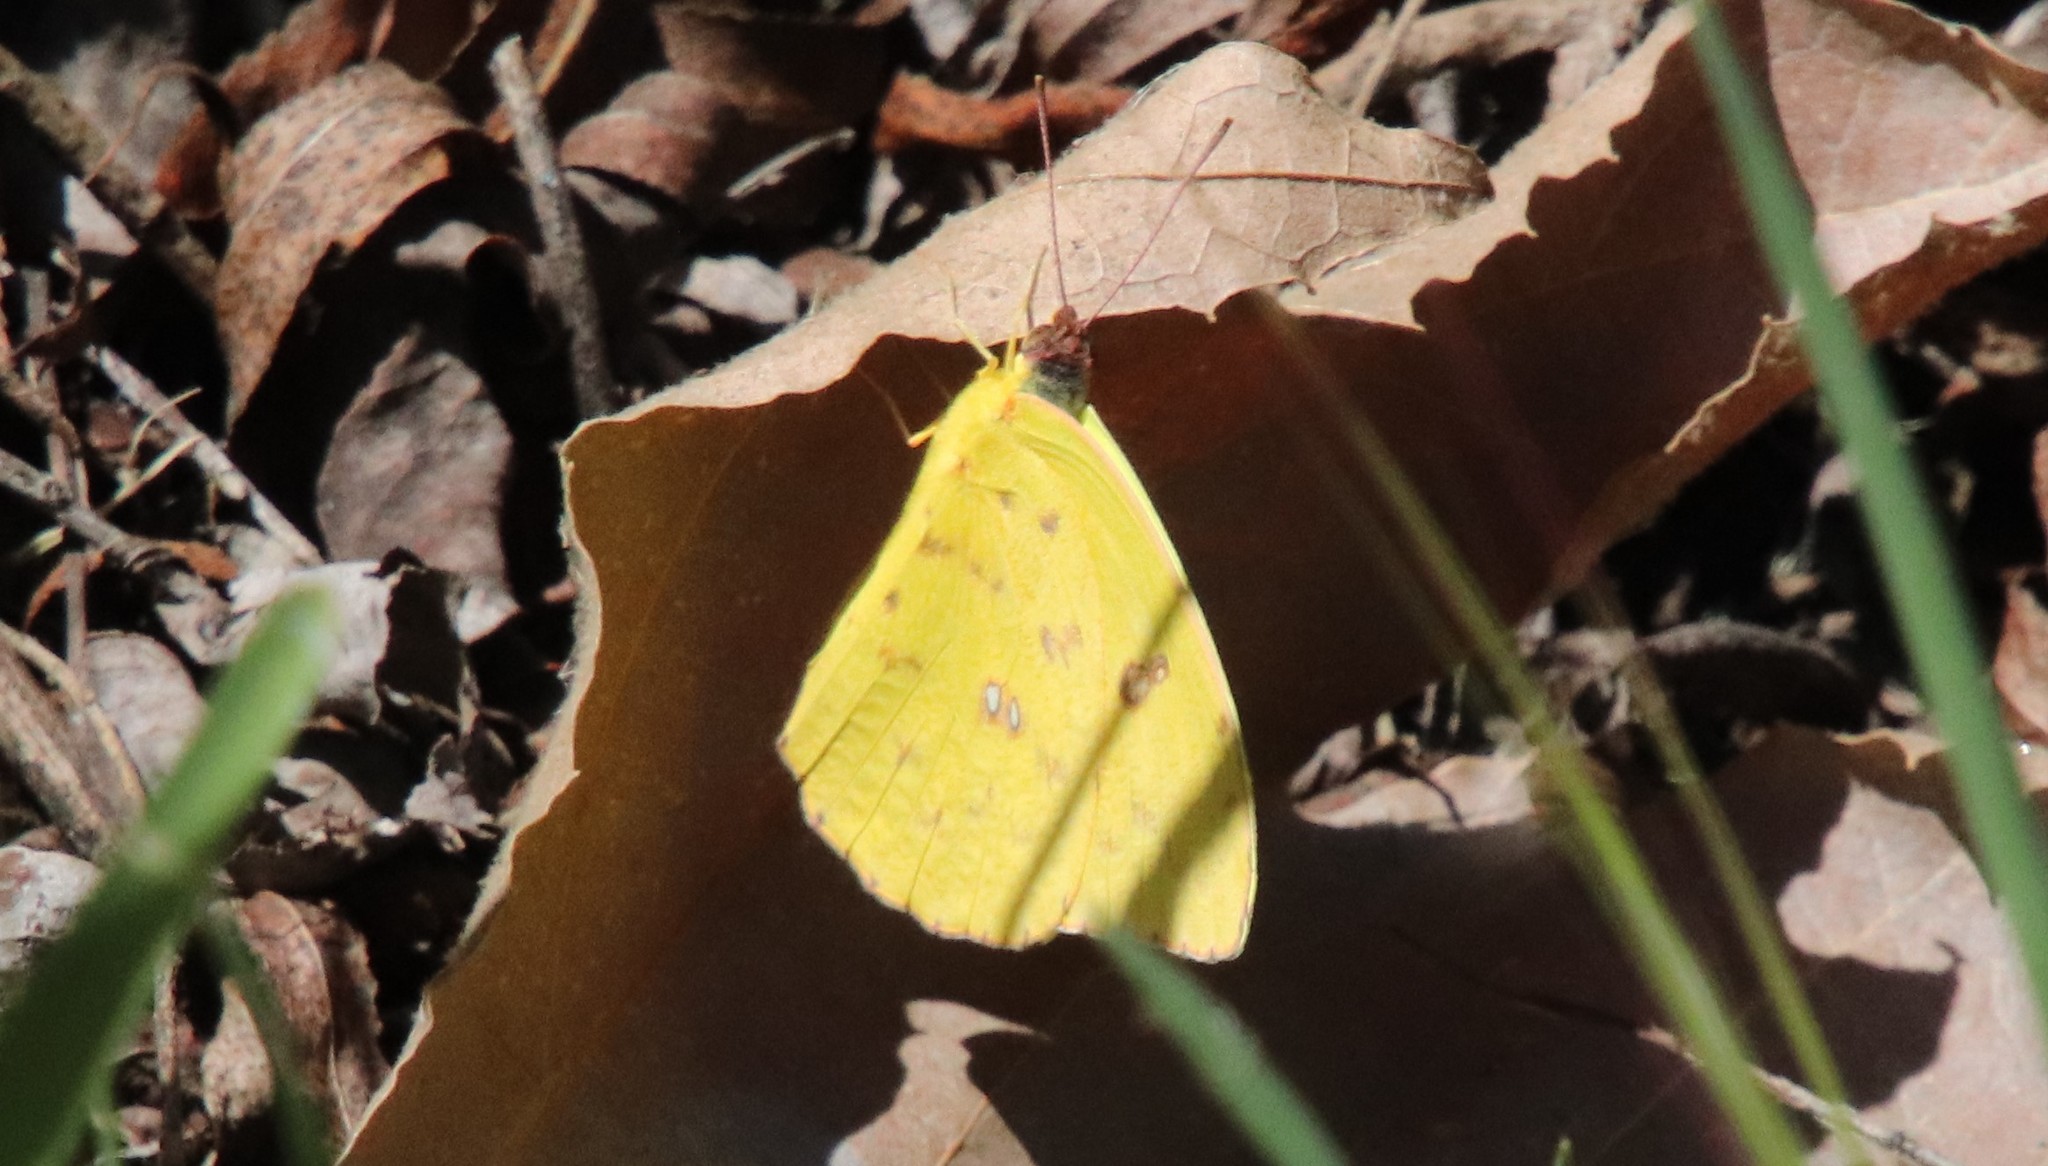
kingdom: Animalia
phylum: Arthropoda
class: Insecta
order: Lepidoptera
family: Pieridae
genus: Phoebis
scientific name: Phoebis sennae
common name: Cloudless sulphur
